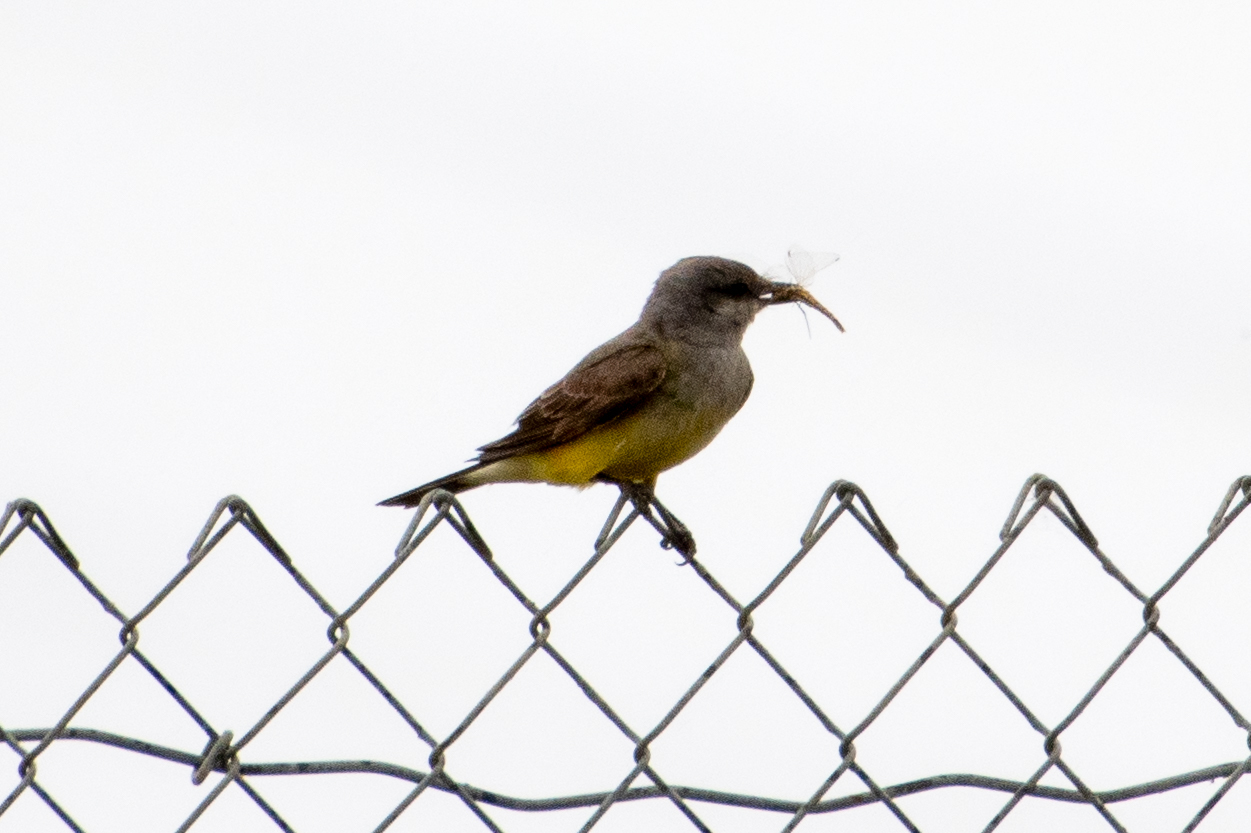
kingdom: Animalia
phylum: Chordata
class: Aves
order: Passeriformes
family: Tyrannidae
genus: Tyrannus
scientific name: Tyrannus verticalis
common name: Western kingbird
